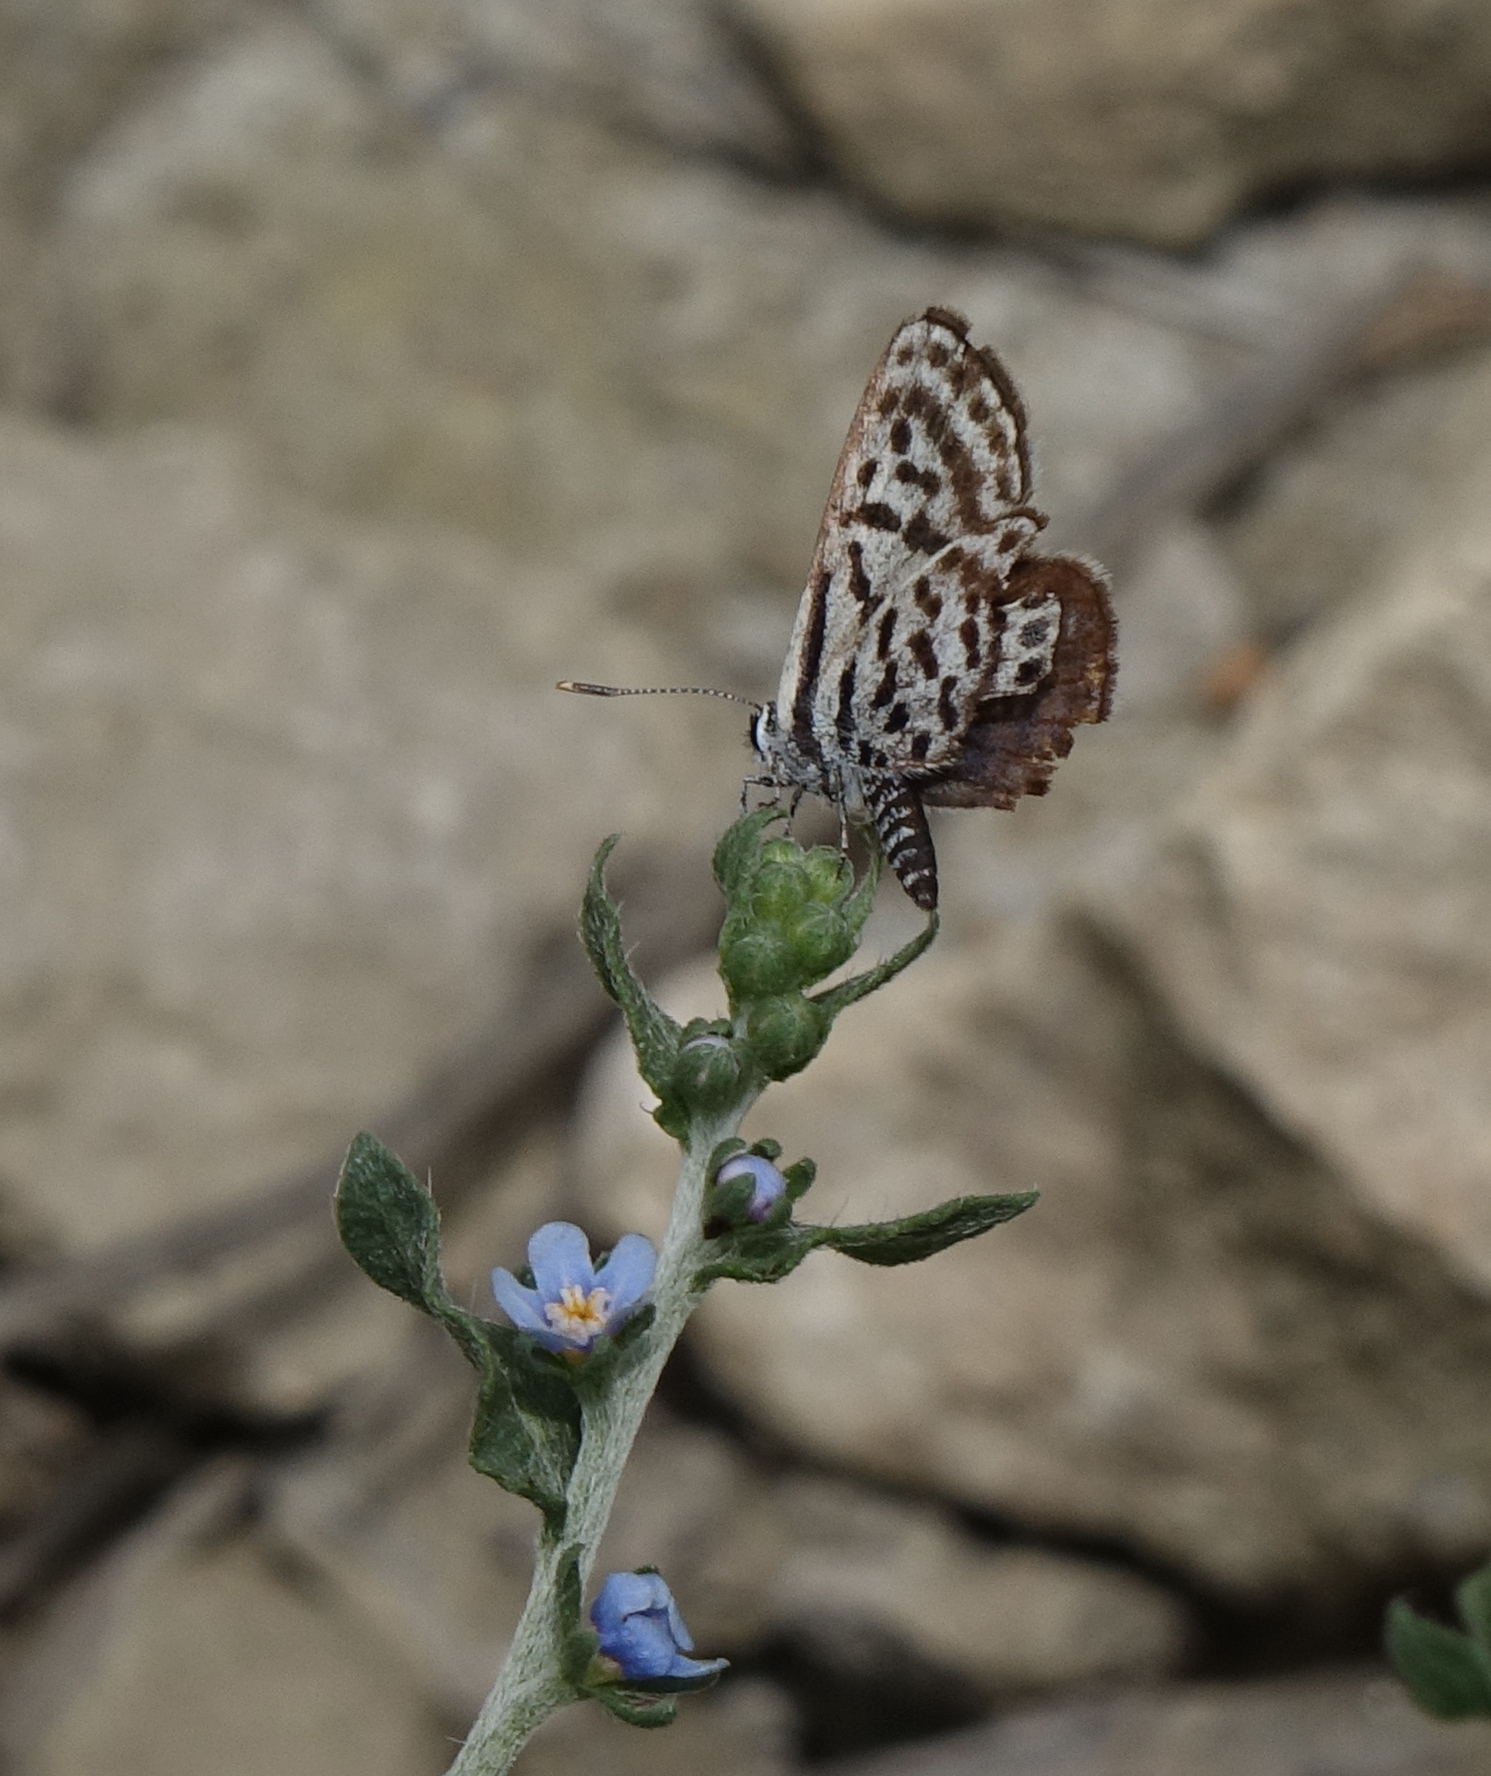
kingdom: Animalia
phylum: Arthropoda
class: Insecta
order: Lepidoptera
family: Lycaenidae
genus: Tarucus
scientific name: Tarucus balkanica
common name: Little tiger blue
